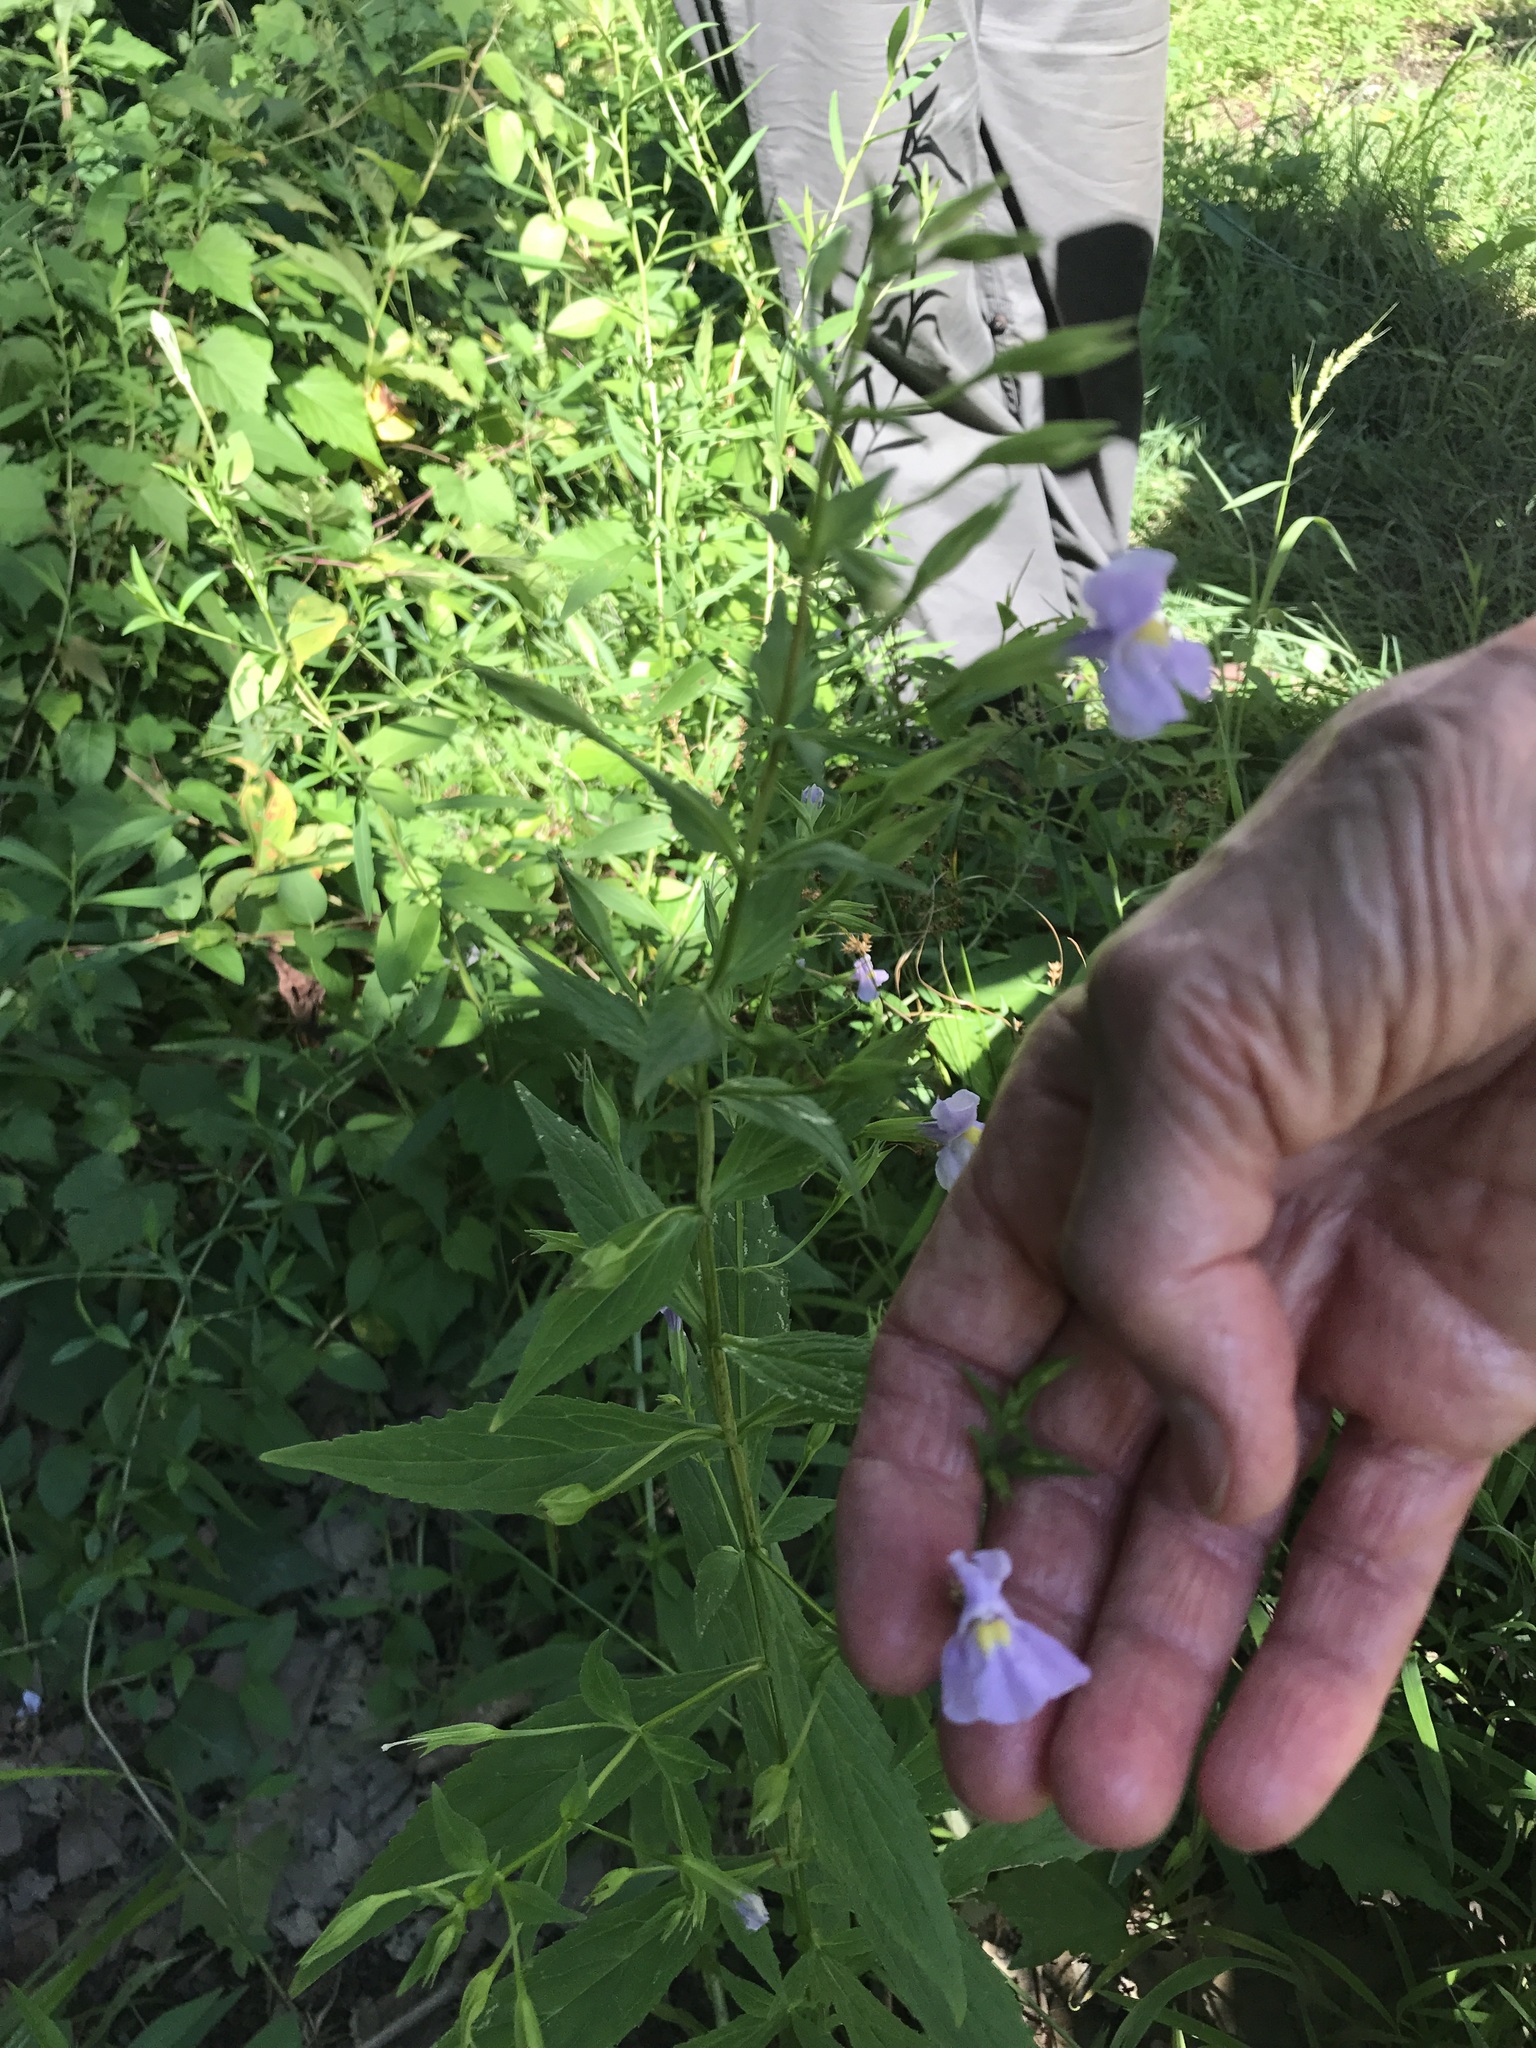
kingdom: Plantae
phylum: Tracheophyta
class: Magnoliopsida
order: Lamiales
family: Phrymaceae
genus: Mimulus
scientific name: Mimulus ringens
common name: Allegheny monkeyflower
